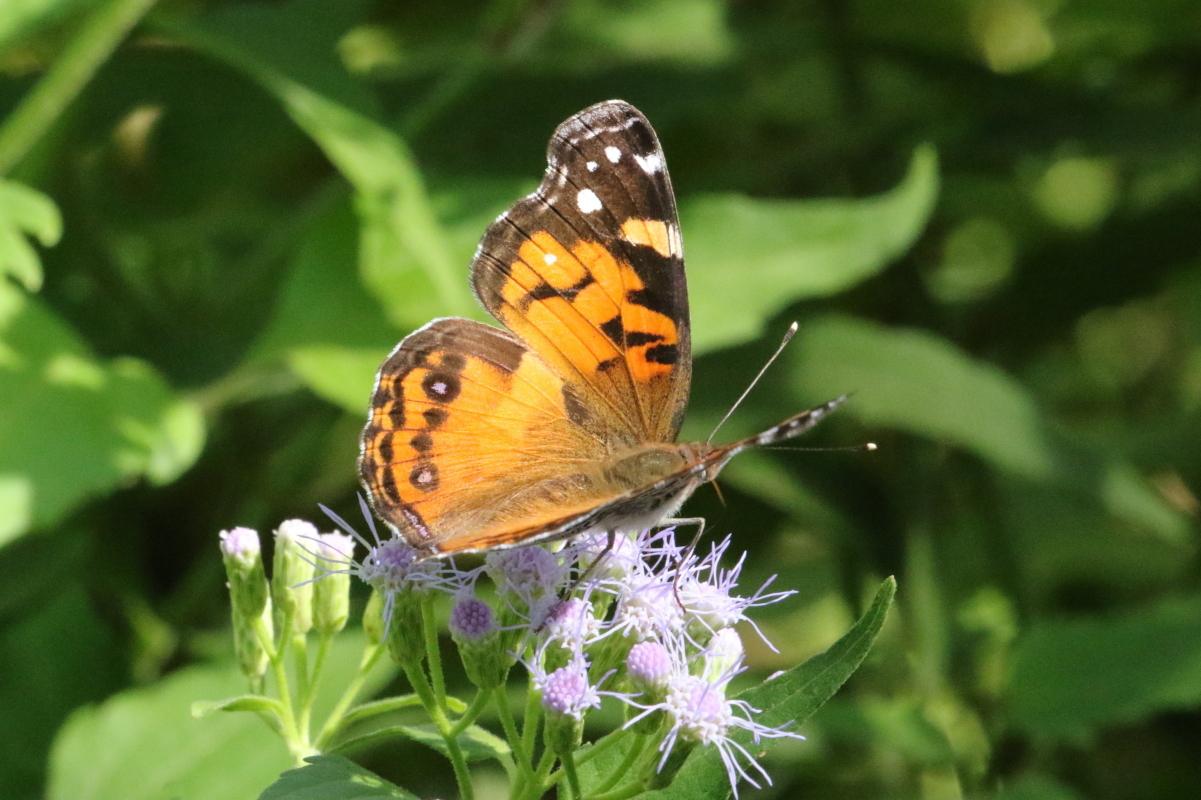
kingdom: Animalia
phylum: Arthropoda
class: Insecta
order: Lepidoptera
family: Nymphalidae
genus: Vanessa
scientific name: Vanessa virginiensis
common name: American lady
